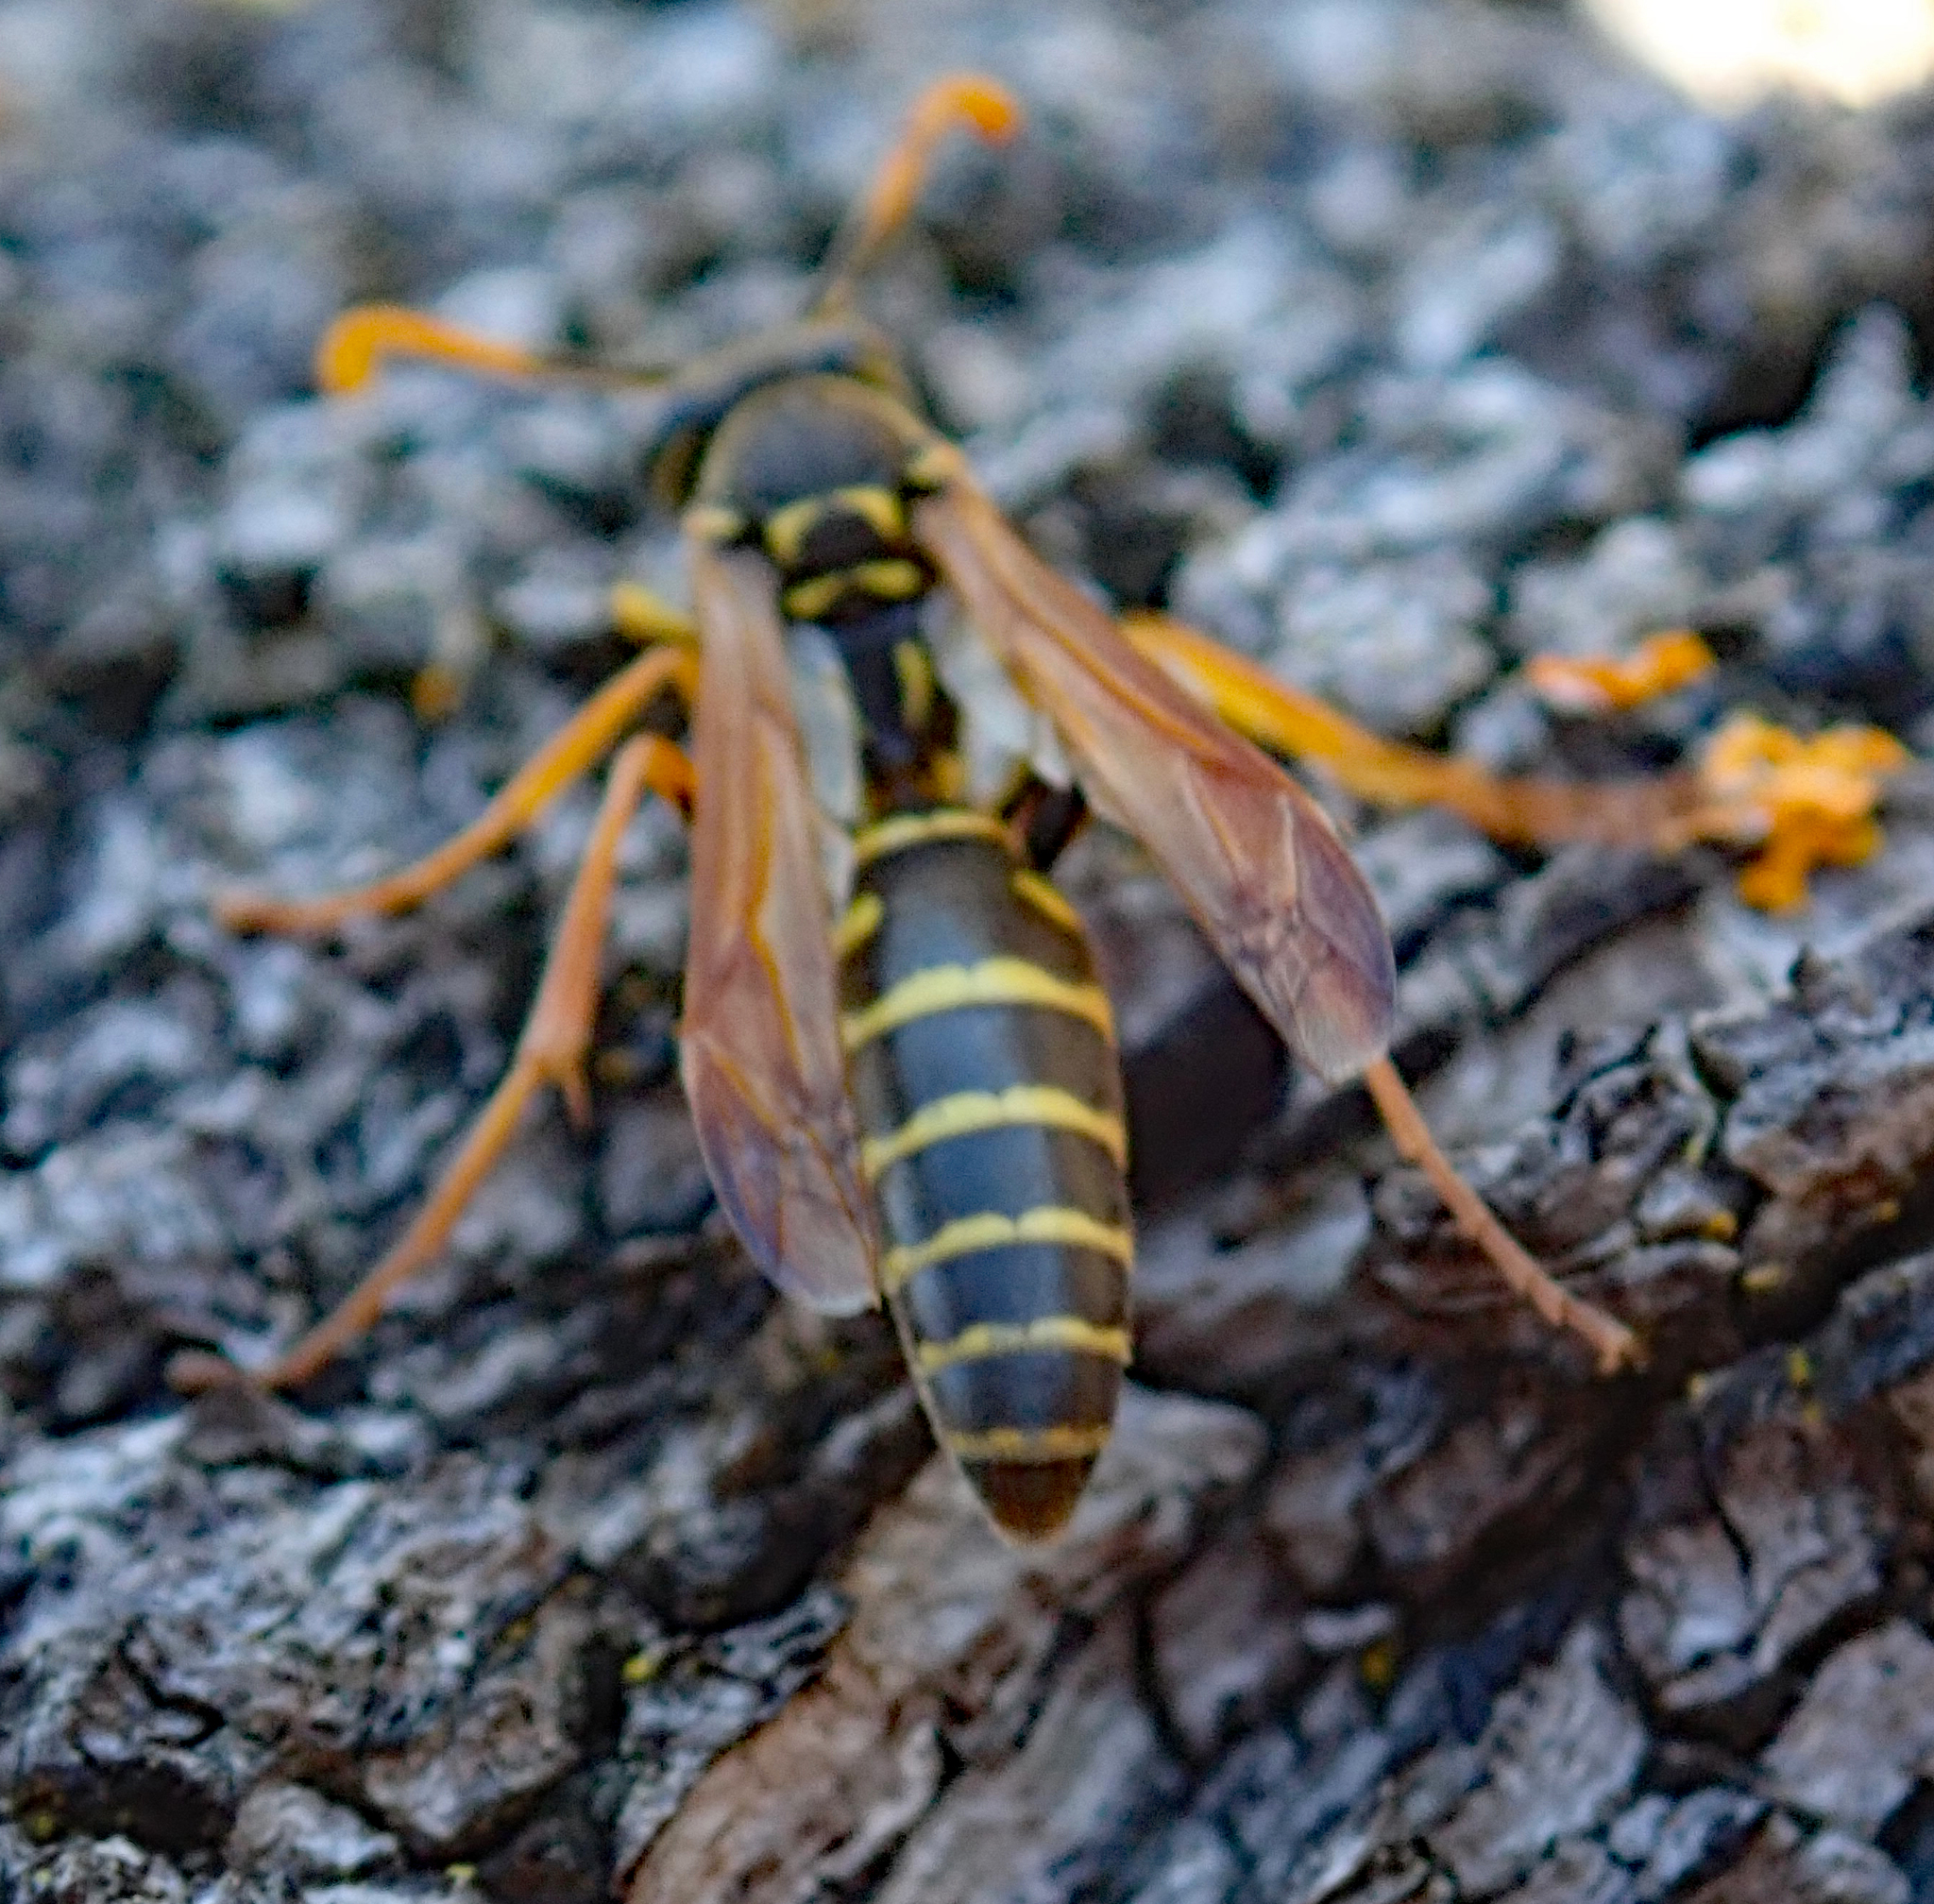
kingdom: Animalia
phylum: Arthropoda
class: Insecta
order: Hymenoptera
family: Eumenidae
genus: Polistes
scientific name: Polistes chinensis
